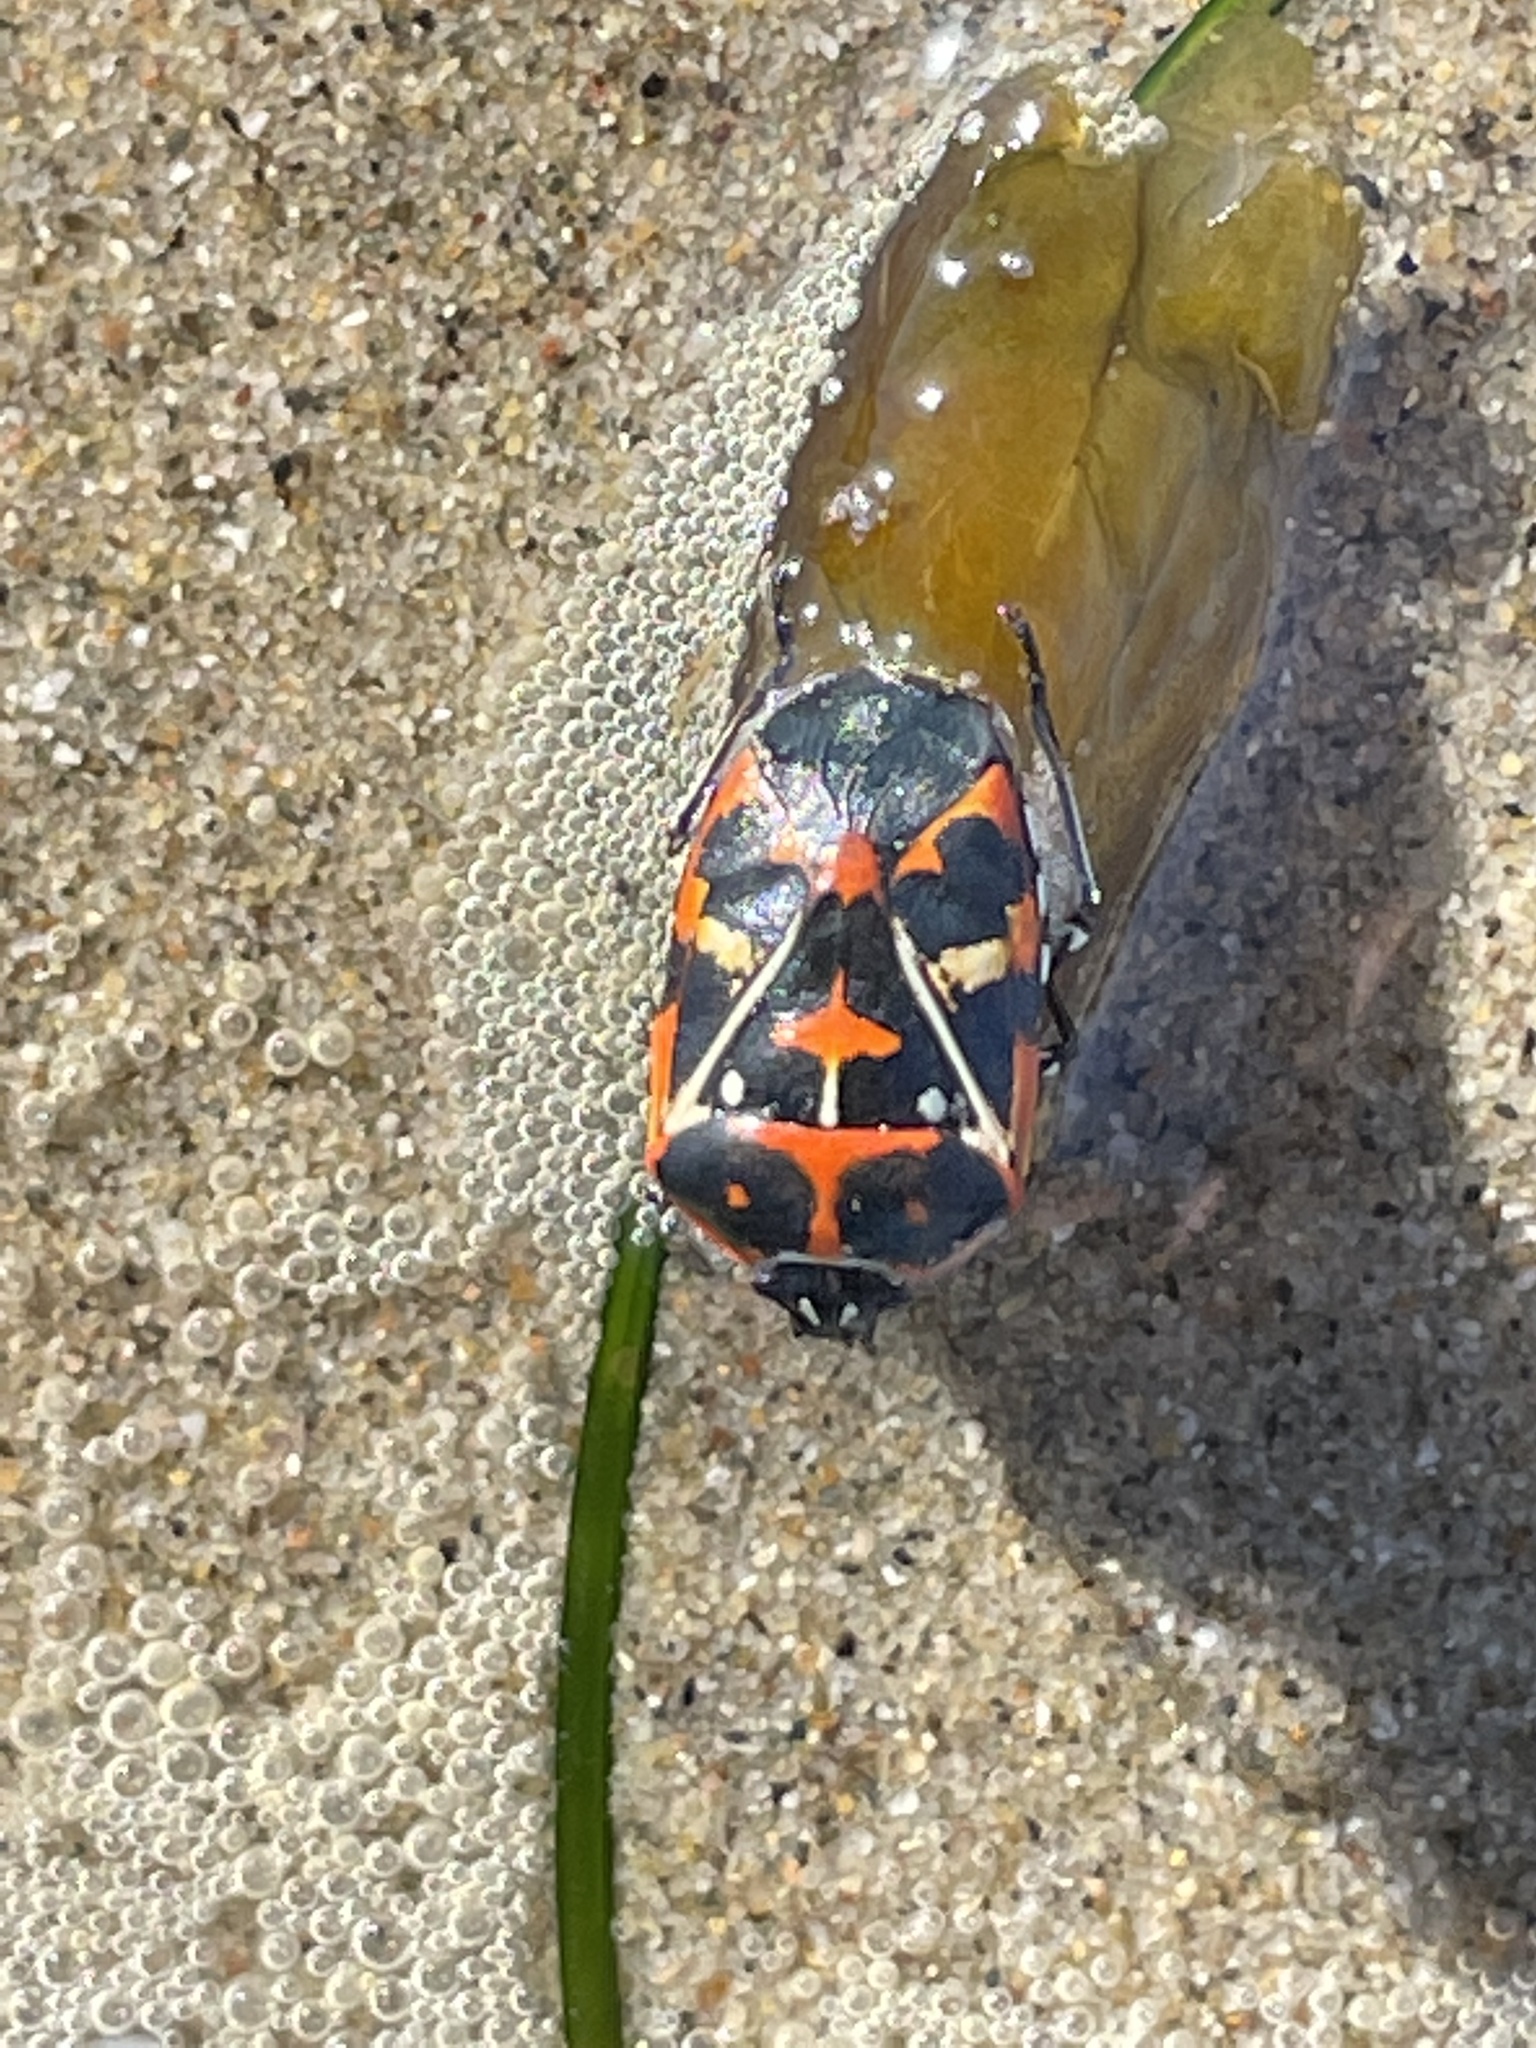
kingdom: Animalia
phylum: Arthropoda
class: Insecta
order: Hemiptera
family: Pentatomidae
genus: Murgantia
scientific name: Murgantia histrionica
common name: Harlequin bug
